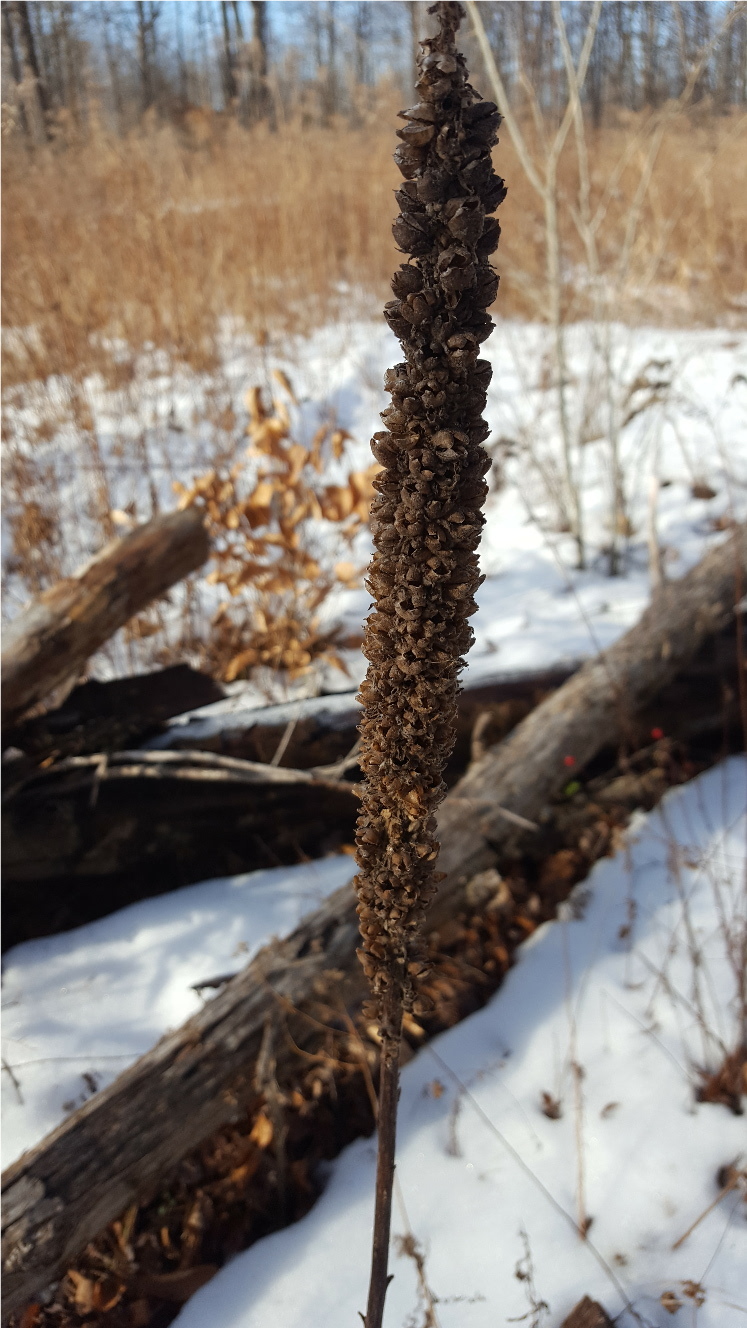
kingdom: Plantae
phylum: Tracheophyta
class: Magnoliopsida
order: Lamiales
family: Scrophulariaceae
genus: Verbascum
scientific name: Verbascum thapsus
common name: Common mullein
